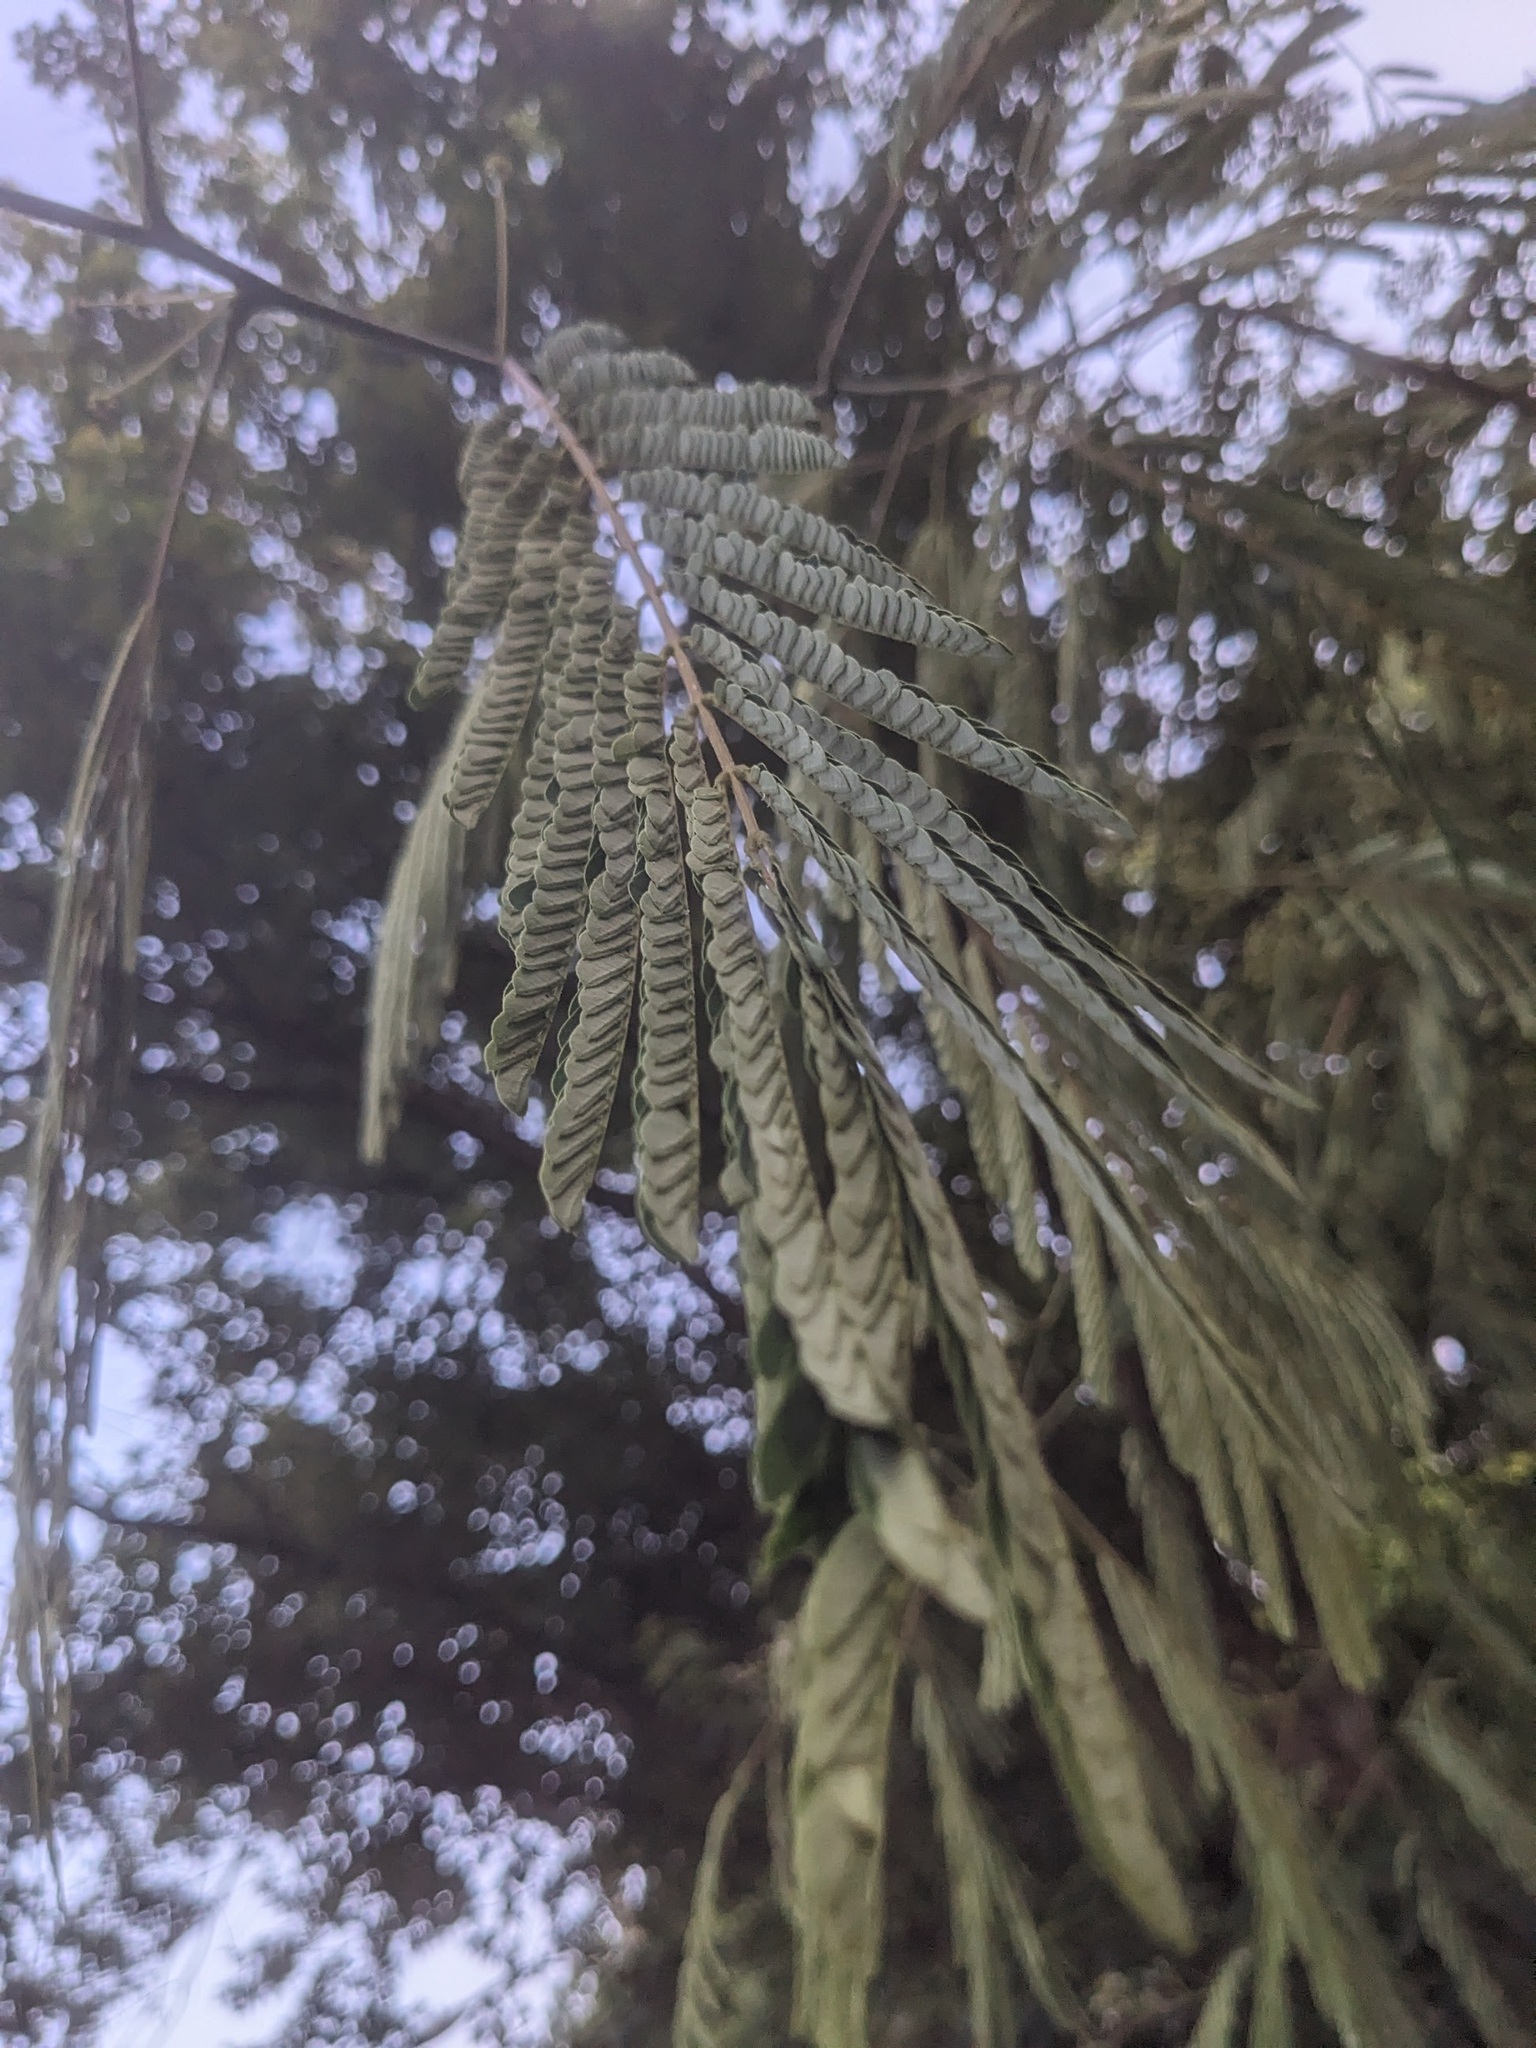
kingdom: Plantae
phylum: Tracheophyta
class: Magnoliopsida
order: Fabales
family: Fabaceae
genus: Albizia
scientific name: Albizia julibrissin
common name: Silktree
